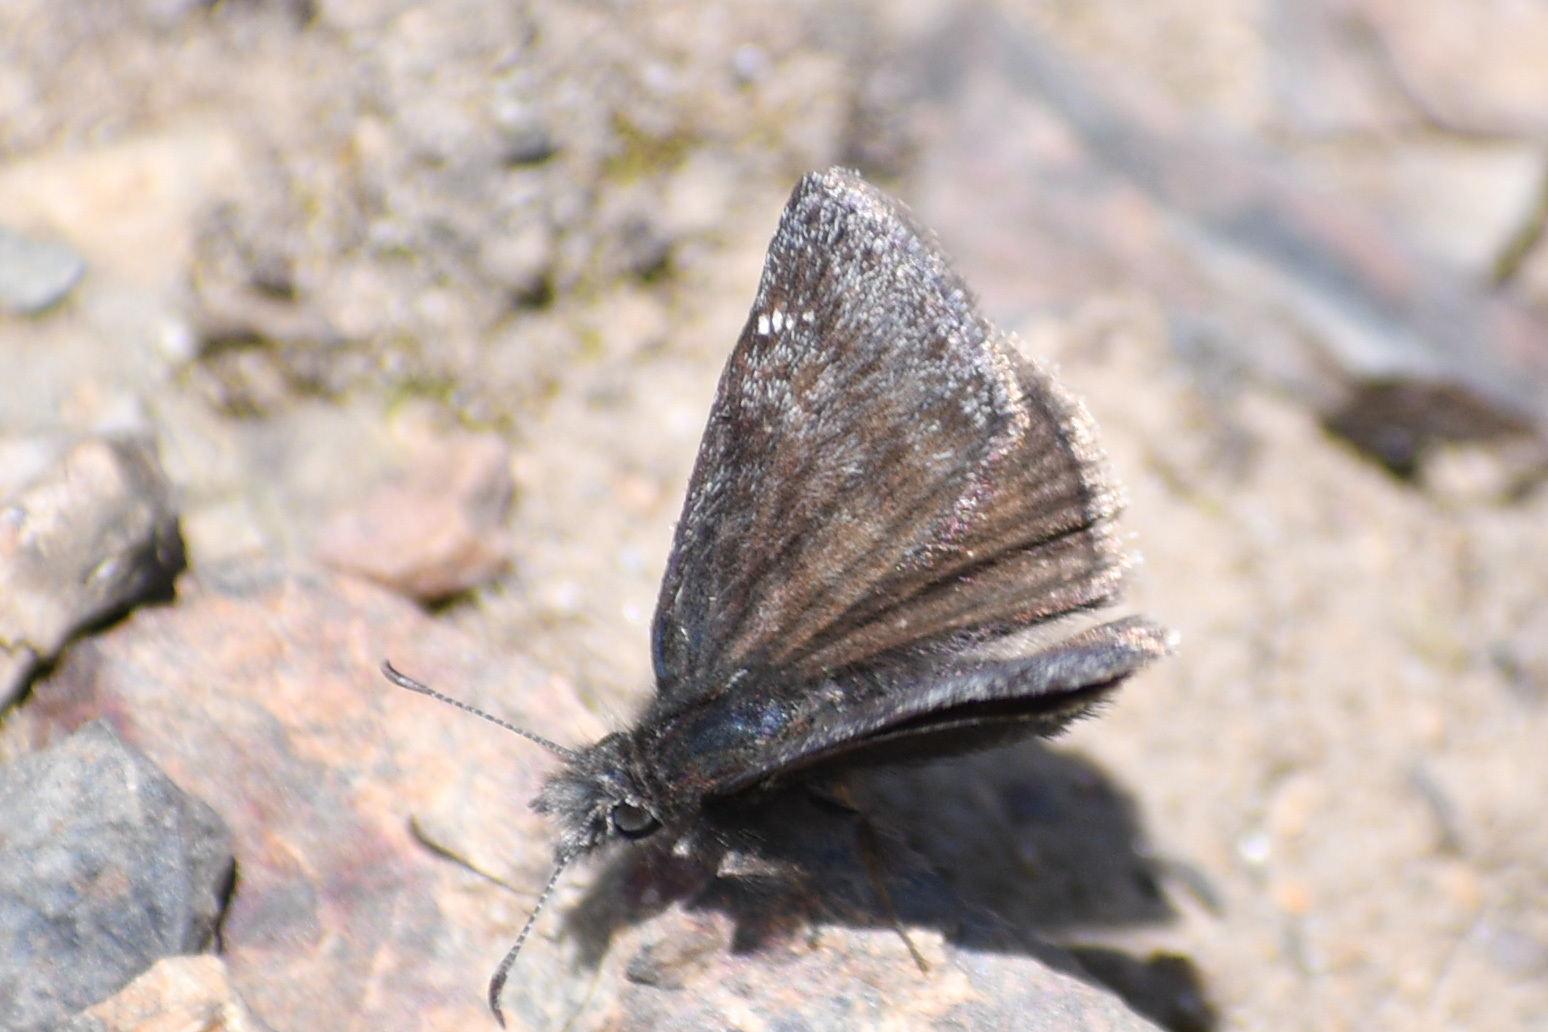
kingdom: Animalia
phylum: Arthropoda
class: Insecta
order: Lepidoptera
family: Hesperiidae
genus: Erynnis
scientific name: Erynnis persius
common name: Persius duskywing
